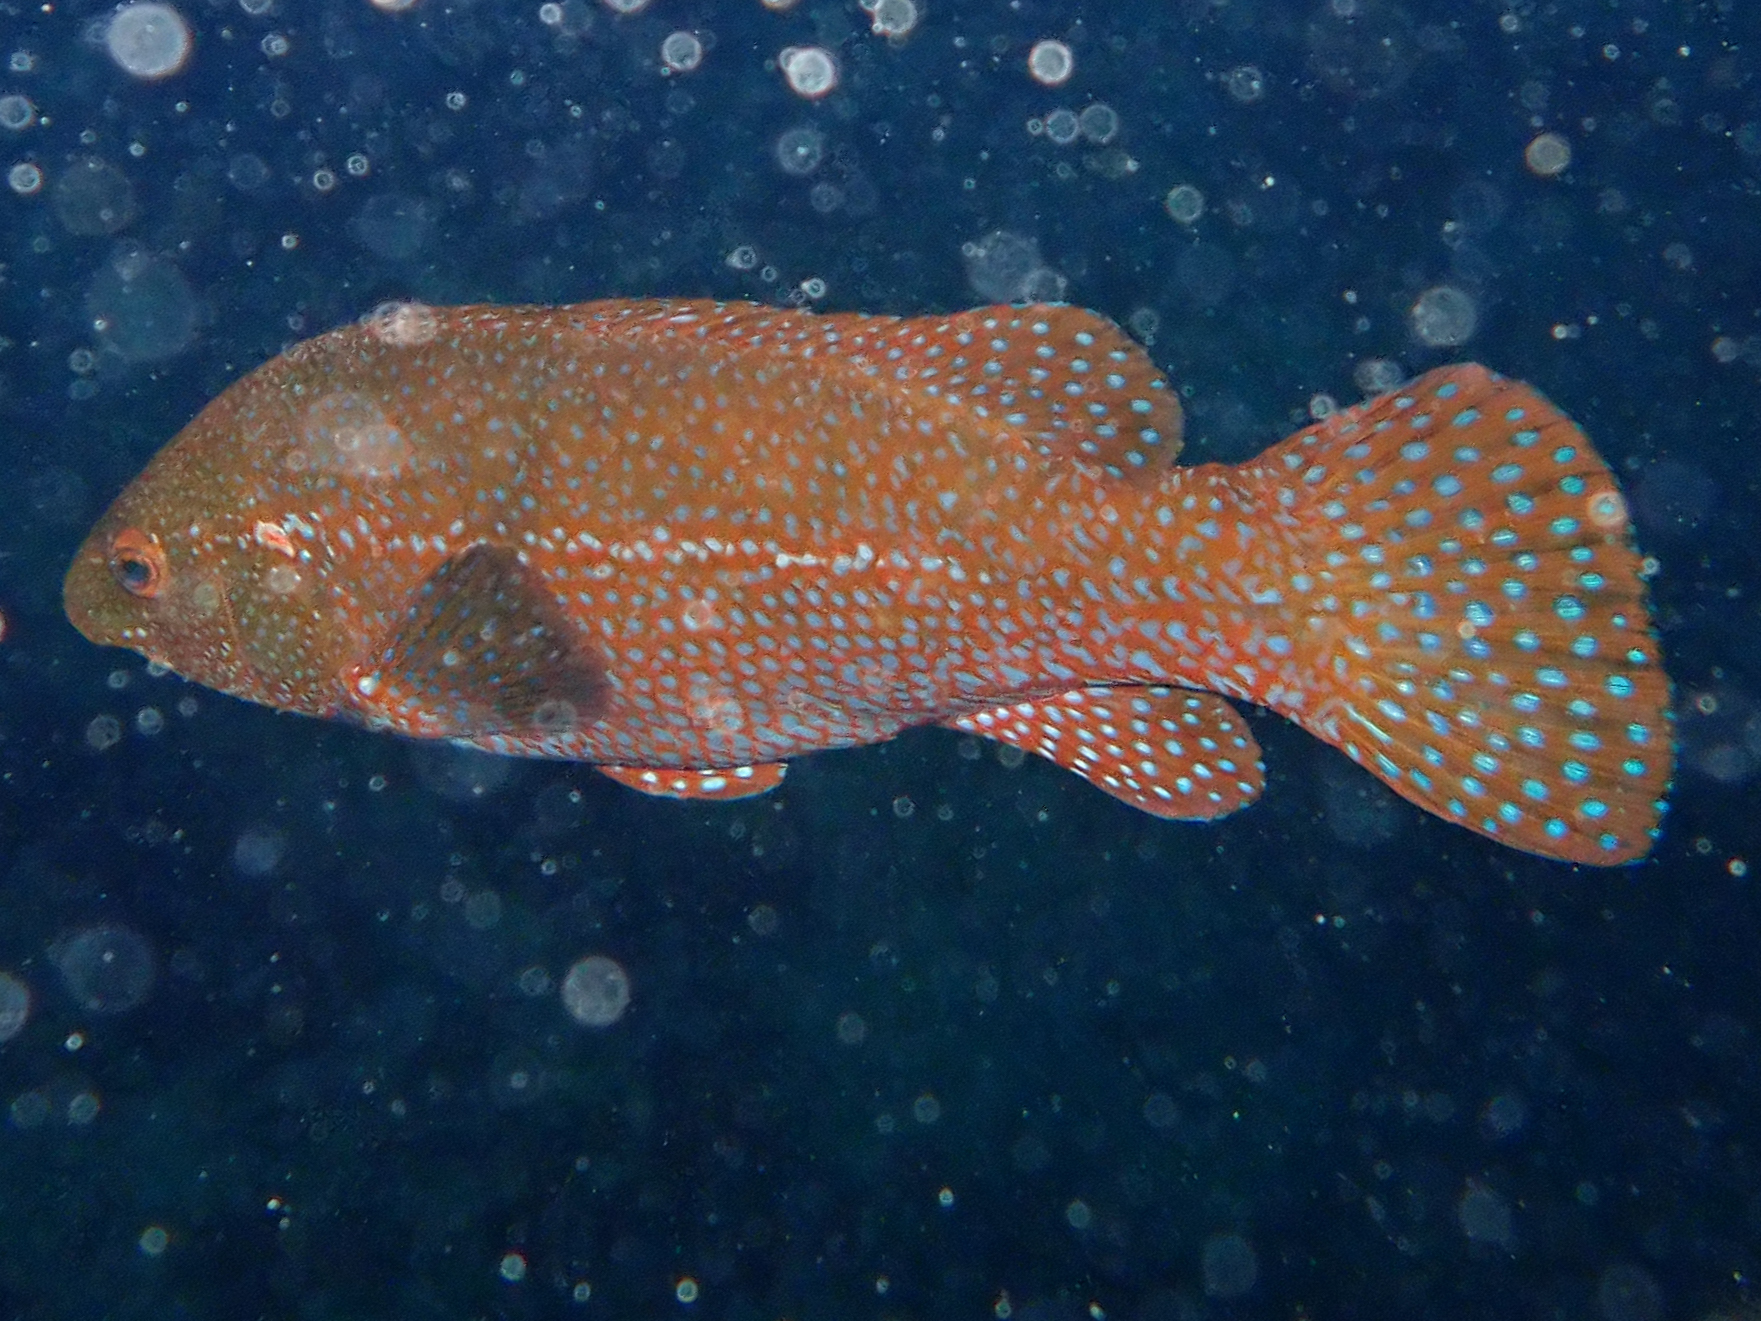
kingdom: Animalia
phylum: Chordata
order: Perciformes
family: Labridae
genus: Labrus
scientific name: Labrus bergylta
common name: Ballan wrasse
